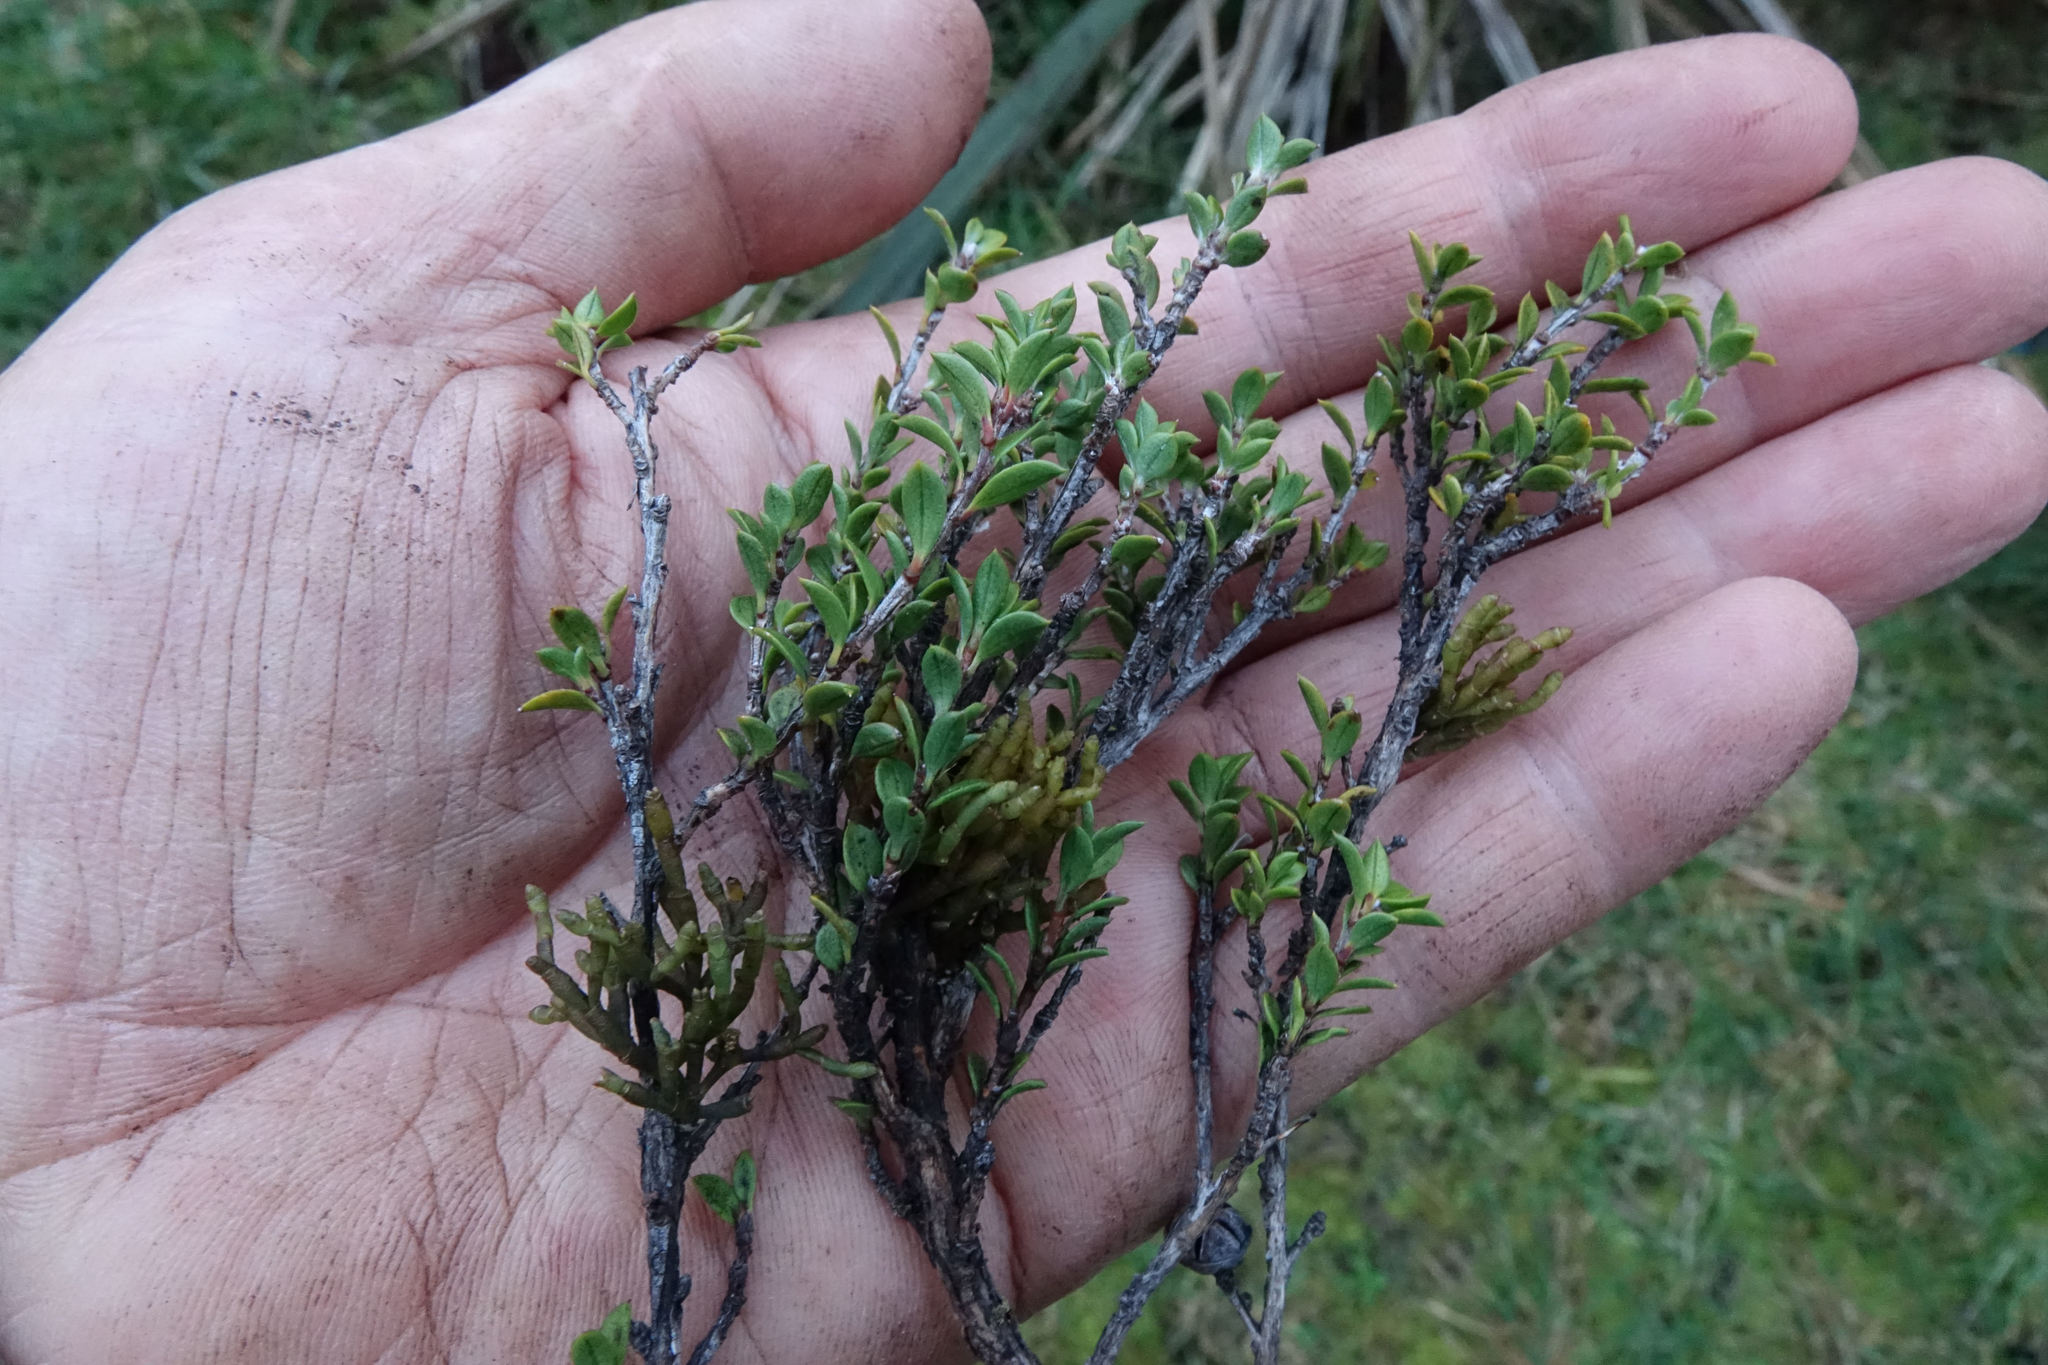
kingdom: Plantae
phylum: Tracheophyta
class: Magnoliopsida
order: Santalales
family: Viscaceae
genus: Korthalsella
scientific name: Korthalsella salicornioides
